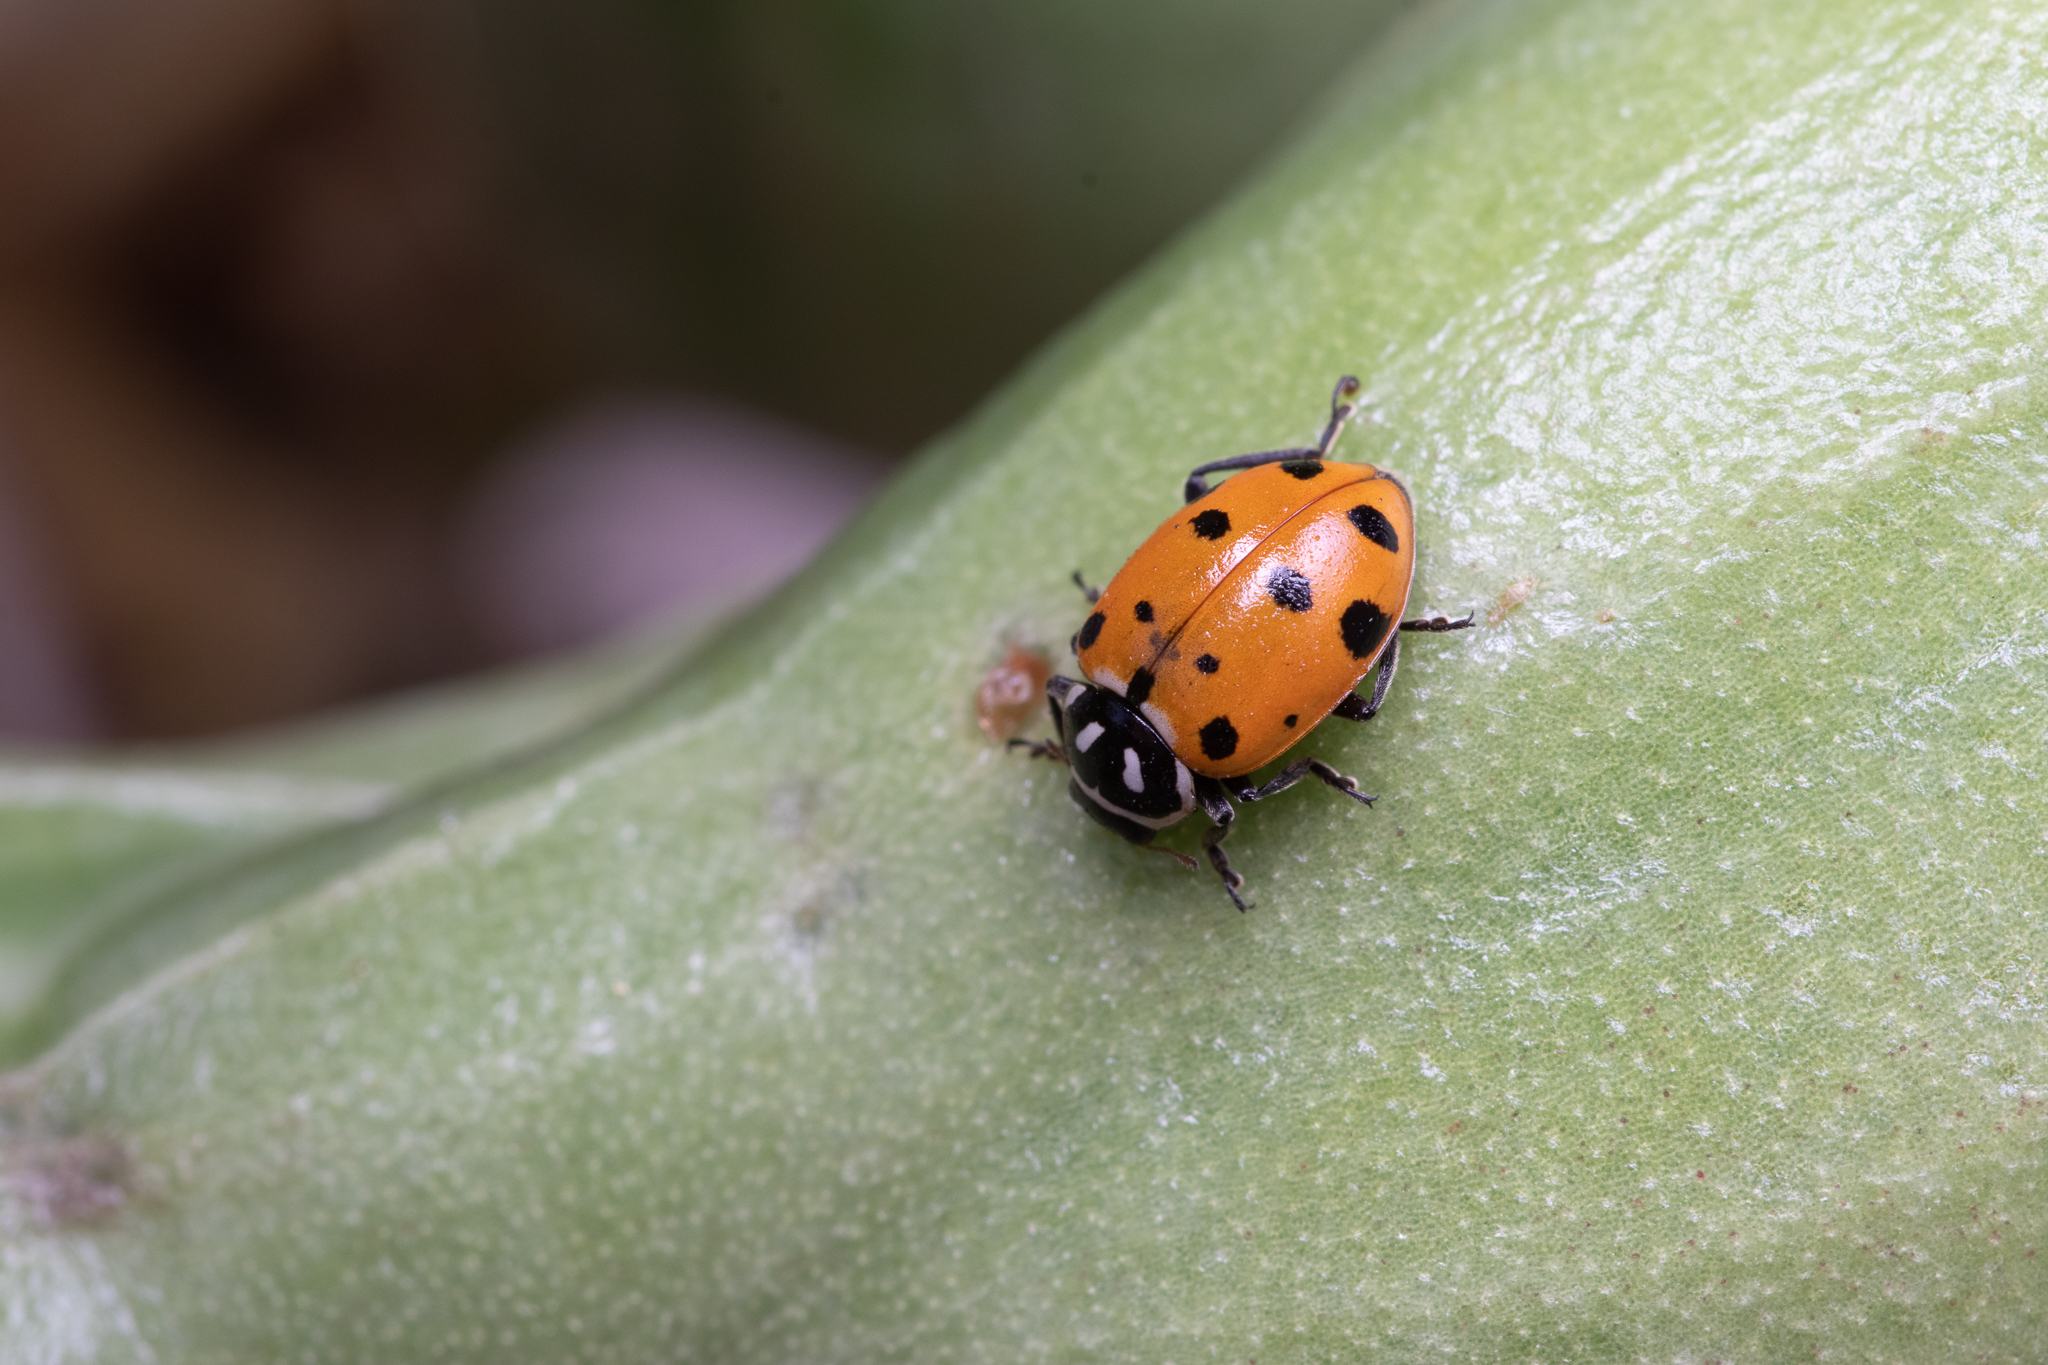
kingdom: Animalia
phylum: Arthropoda
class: Insecta
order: Coleoptera
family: Coccinellidae
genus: Hippodamia
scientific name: Hippodamia convergens
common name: Convergent lady beetle
